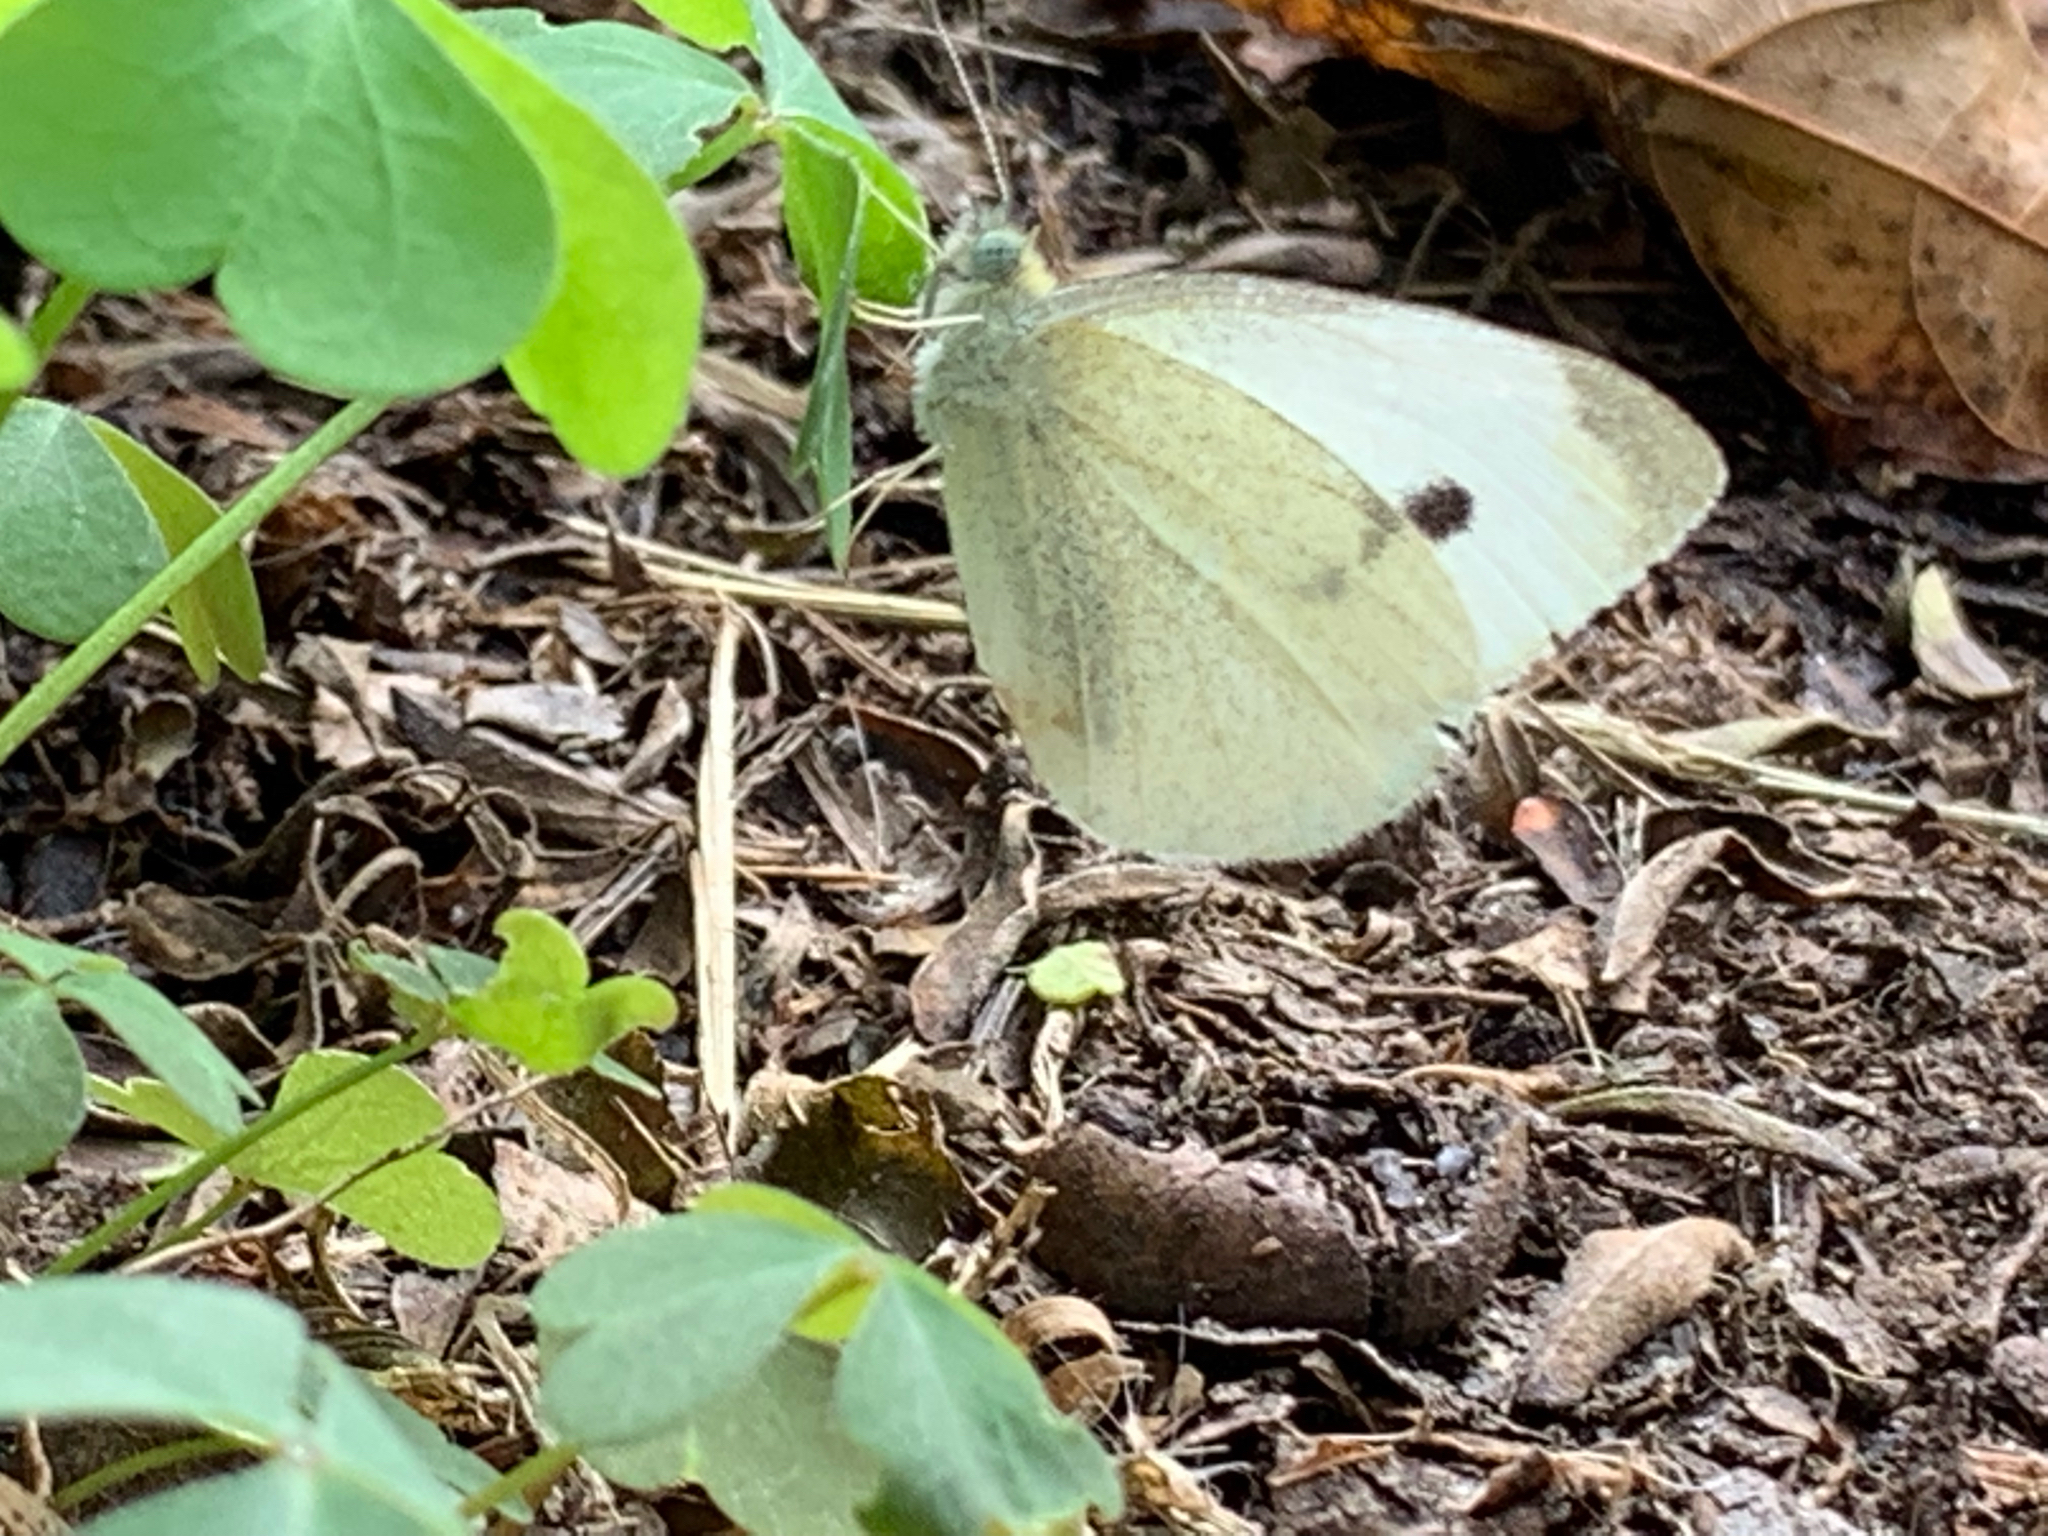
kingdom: Animalia
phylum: Arthropoda
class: Insecta
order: Lepidoptera
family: Pieridae
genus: Pieris
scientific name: Pieris rapae
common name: Small white
